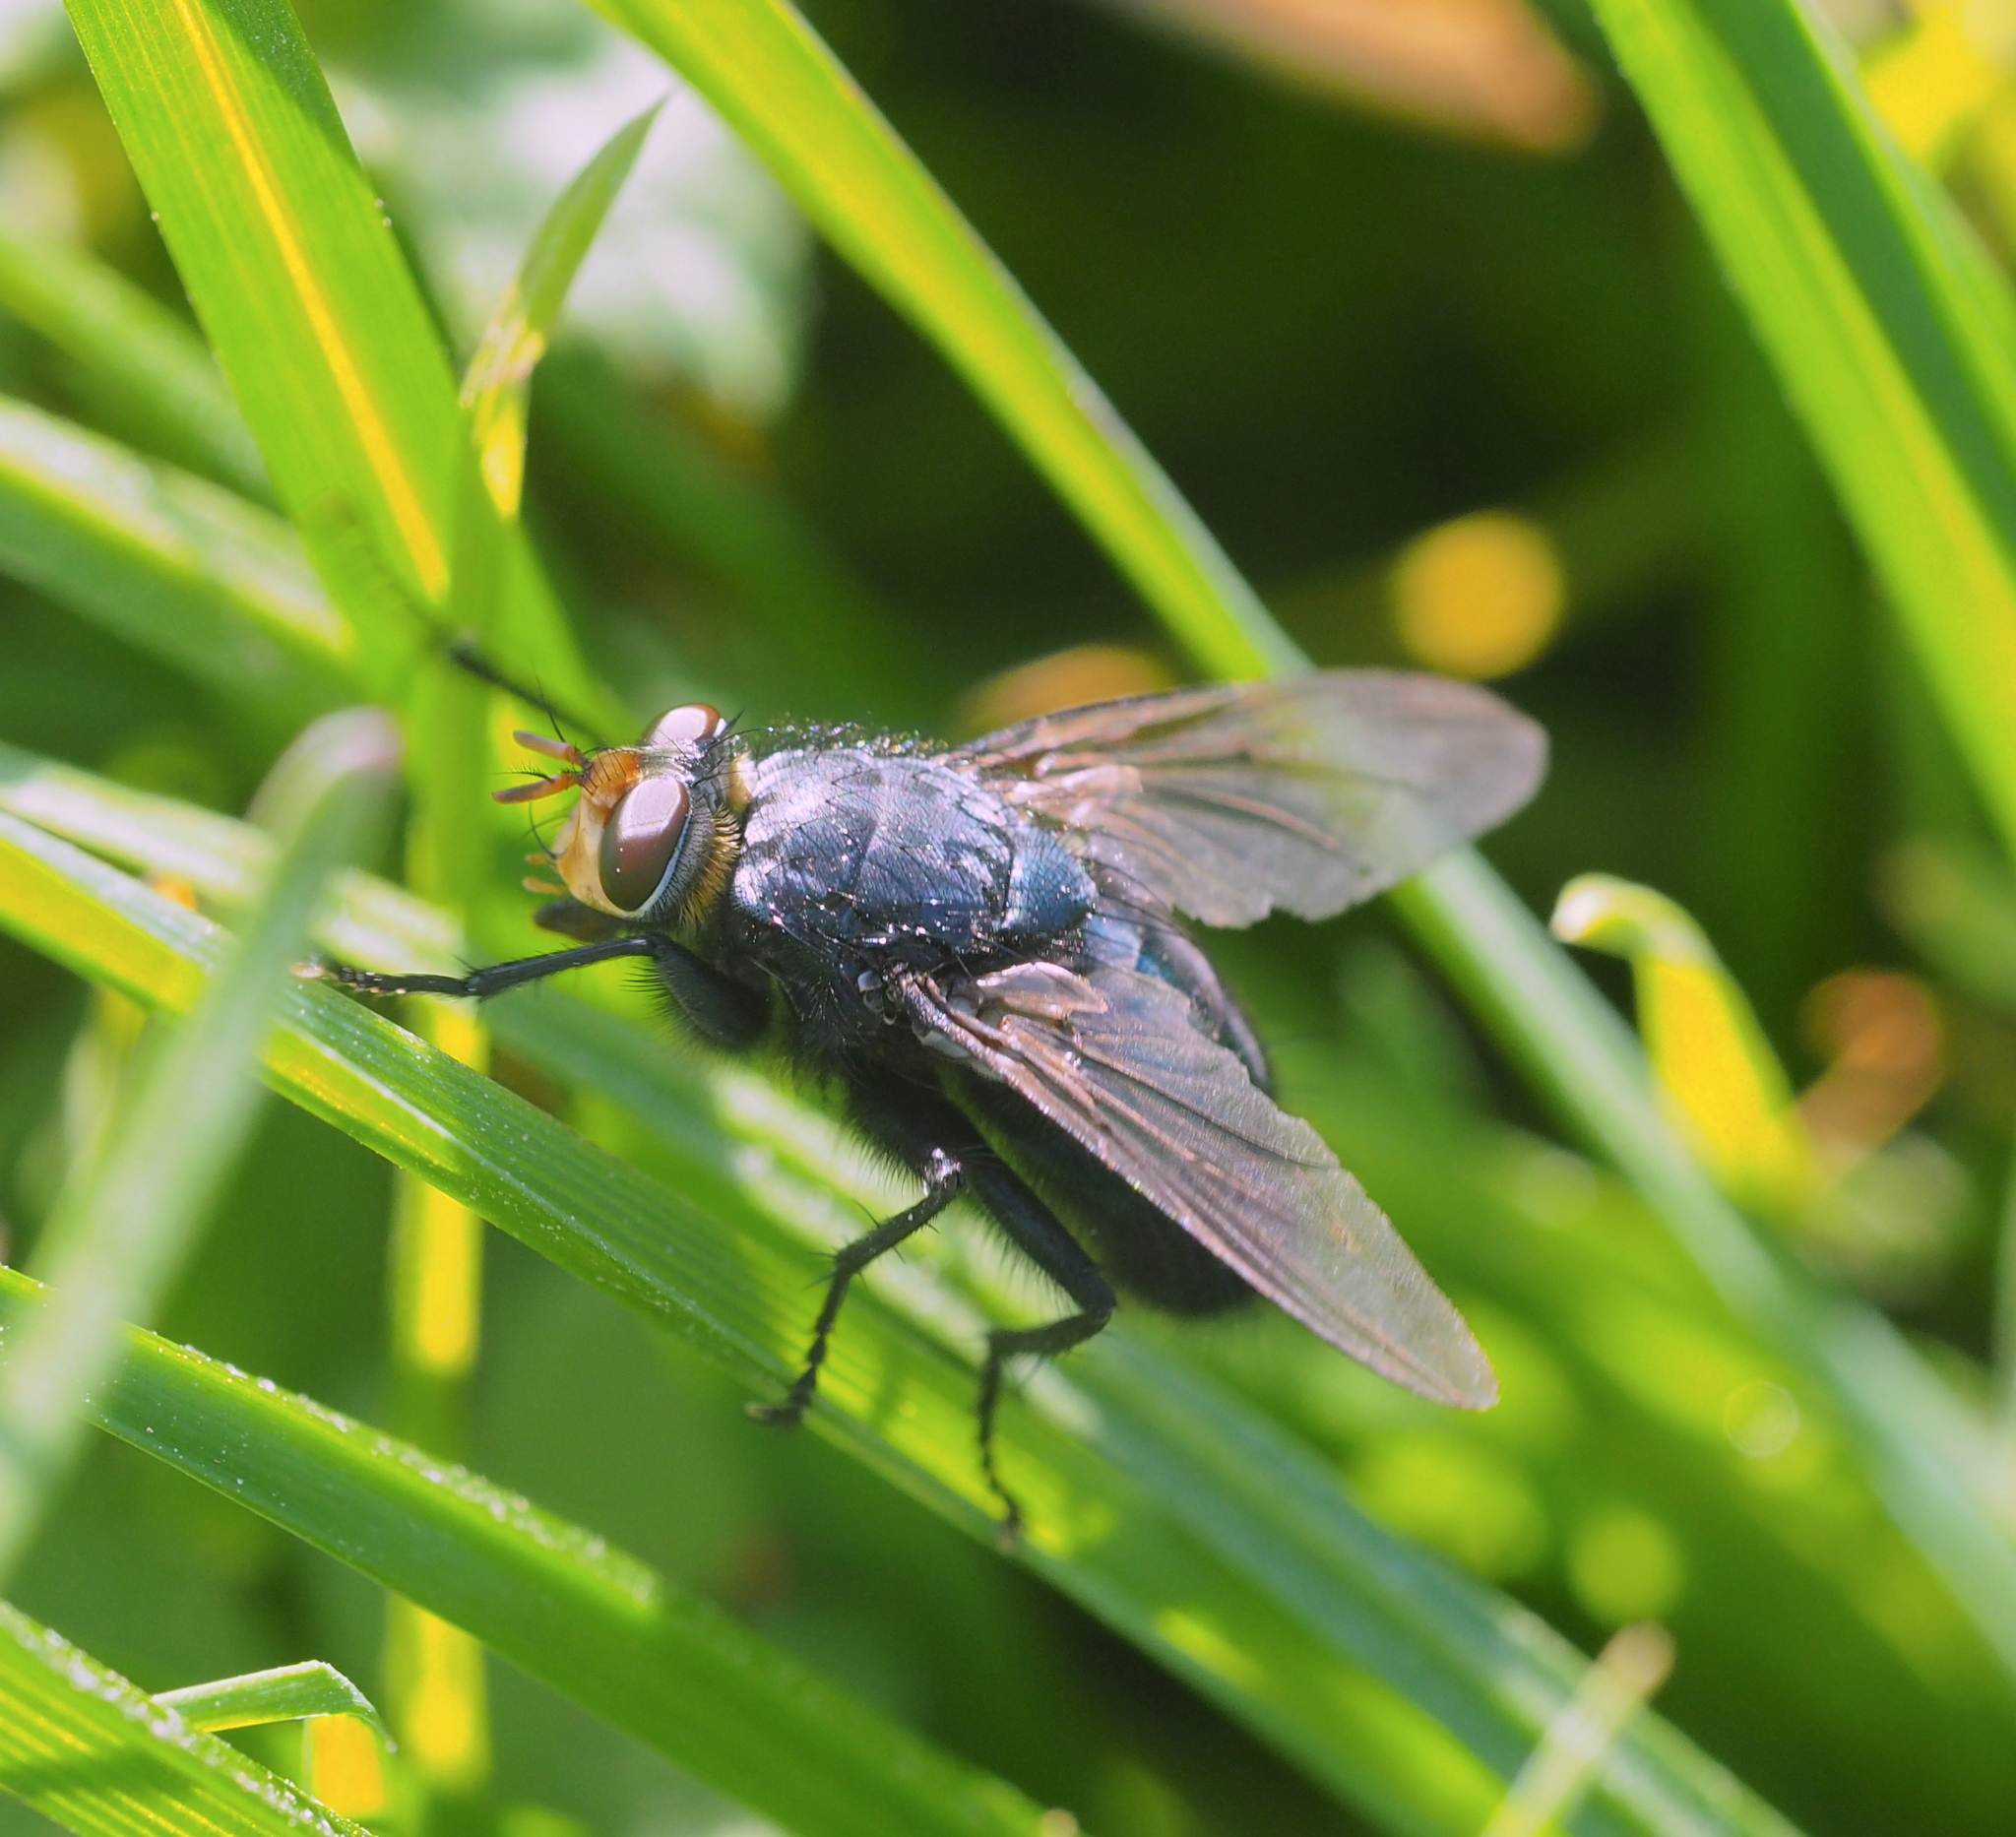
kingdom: Animalia
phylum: Arthropoda
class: Insecta
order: Diptera
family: Calliphoridae
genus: Cynomya
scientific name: Cynomya mortuorum
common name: Bluebottle blow fly
